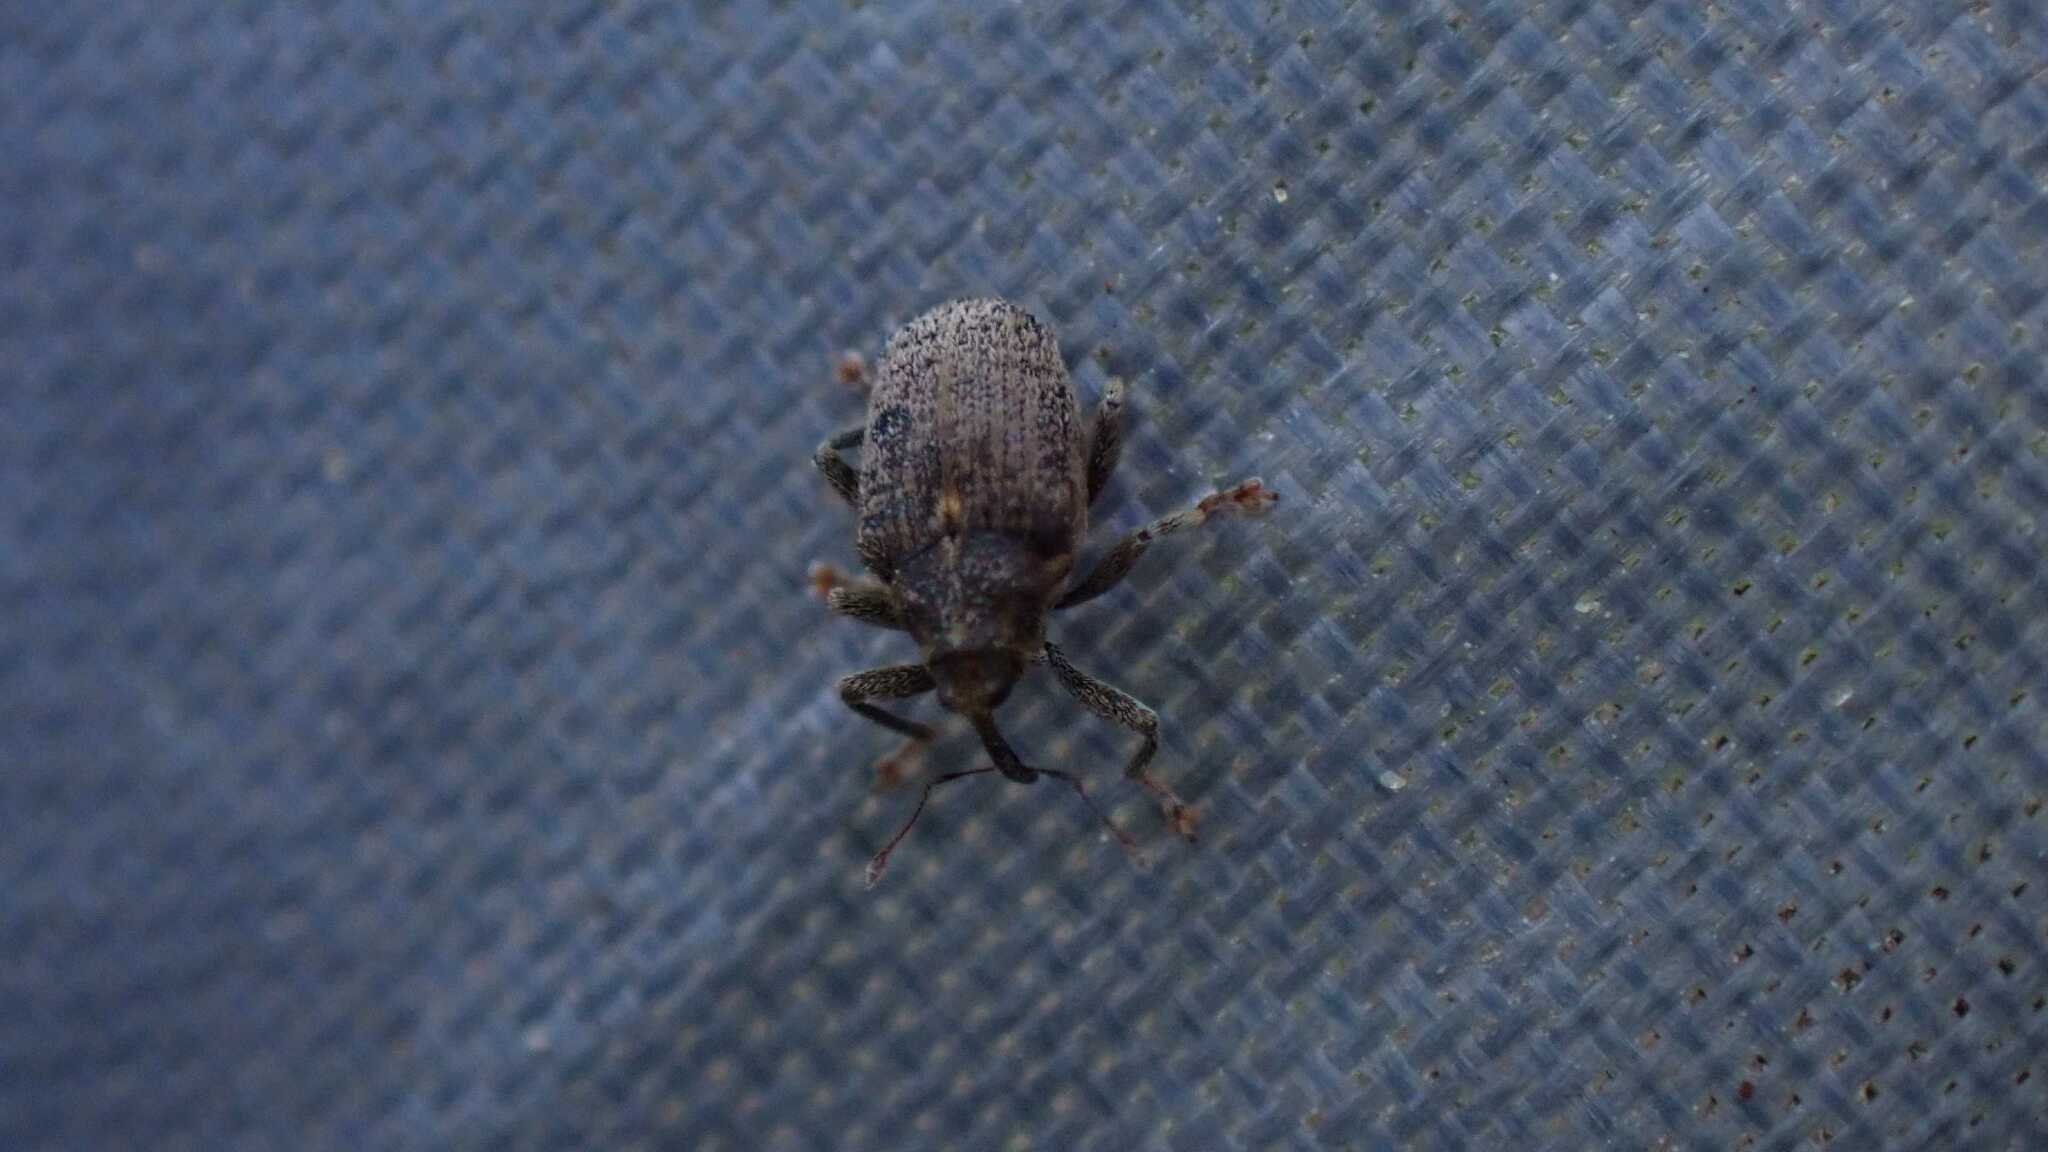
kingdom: Animalia
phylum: Arthropoda
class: Insecta
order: Coleoptera
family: Curculionidae
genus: Ceutorhynchus
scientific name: Ceutorhynchus pallidactylus
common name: Cabbage stem weavil
